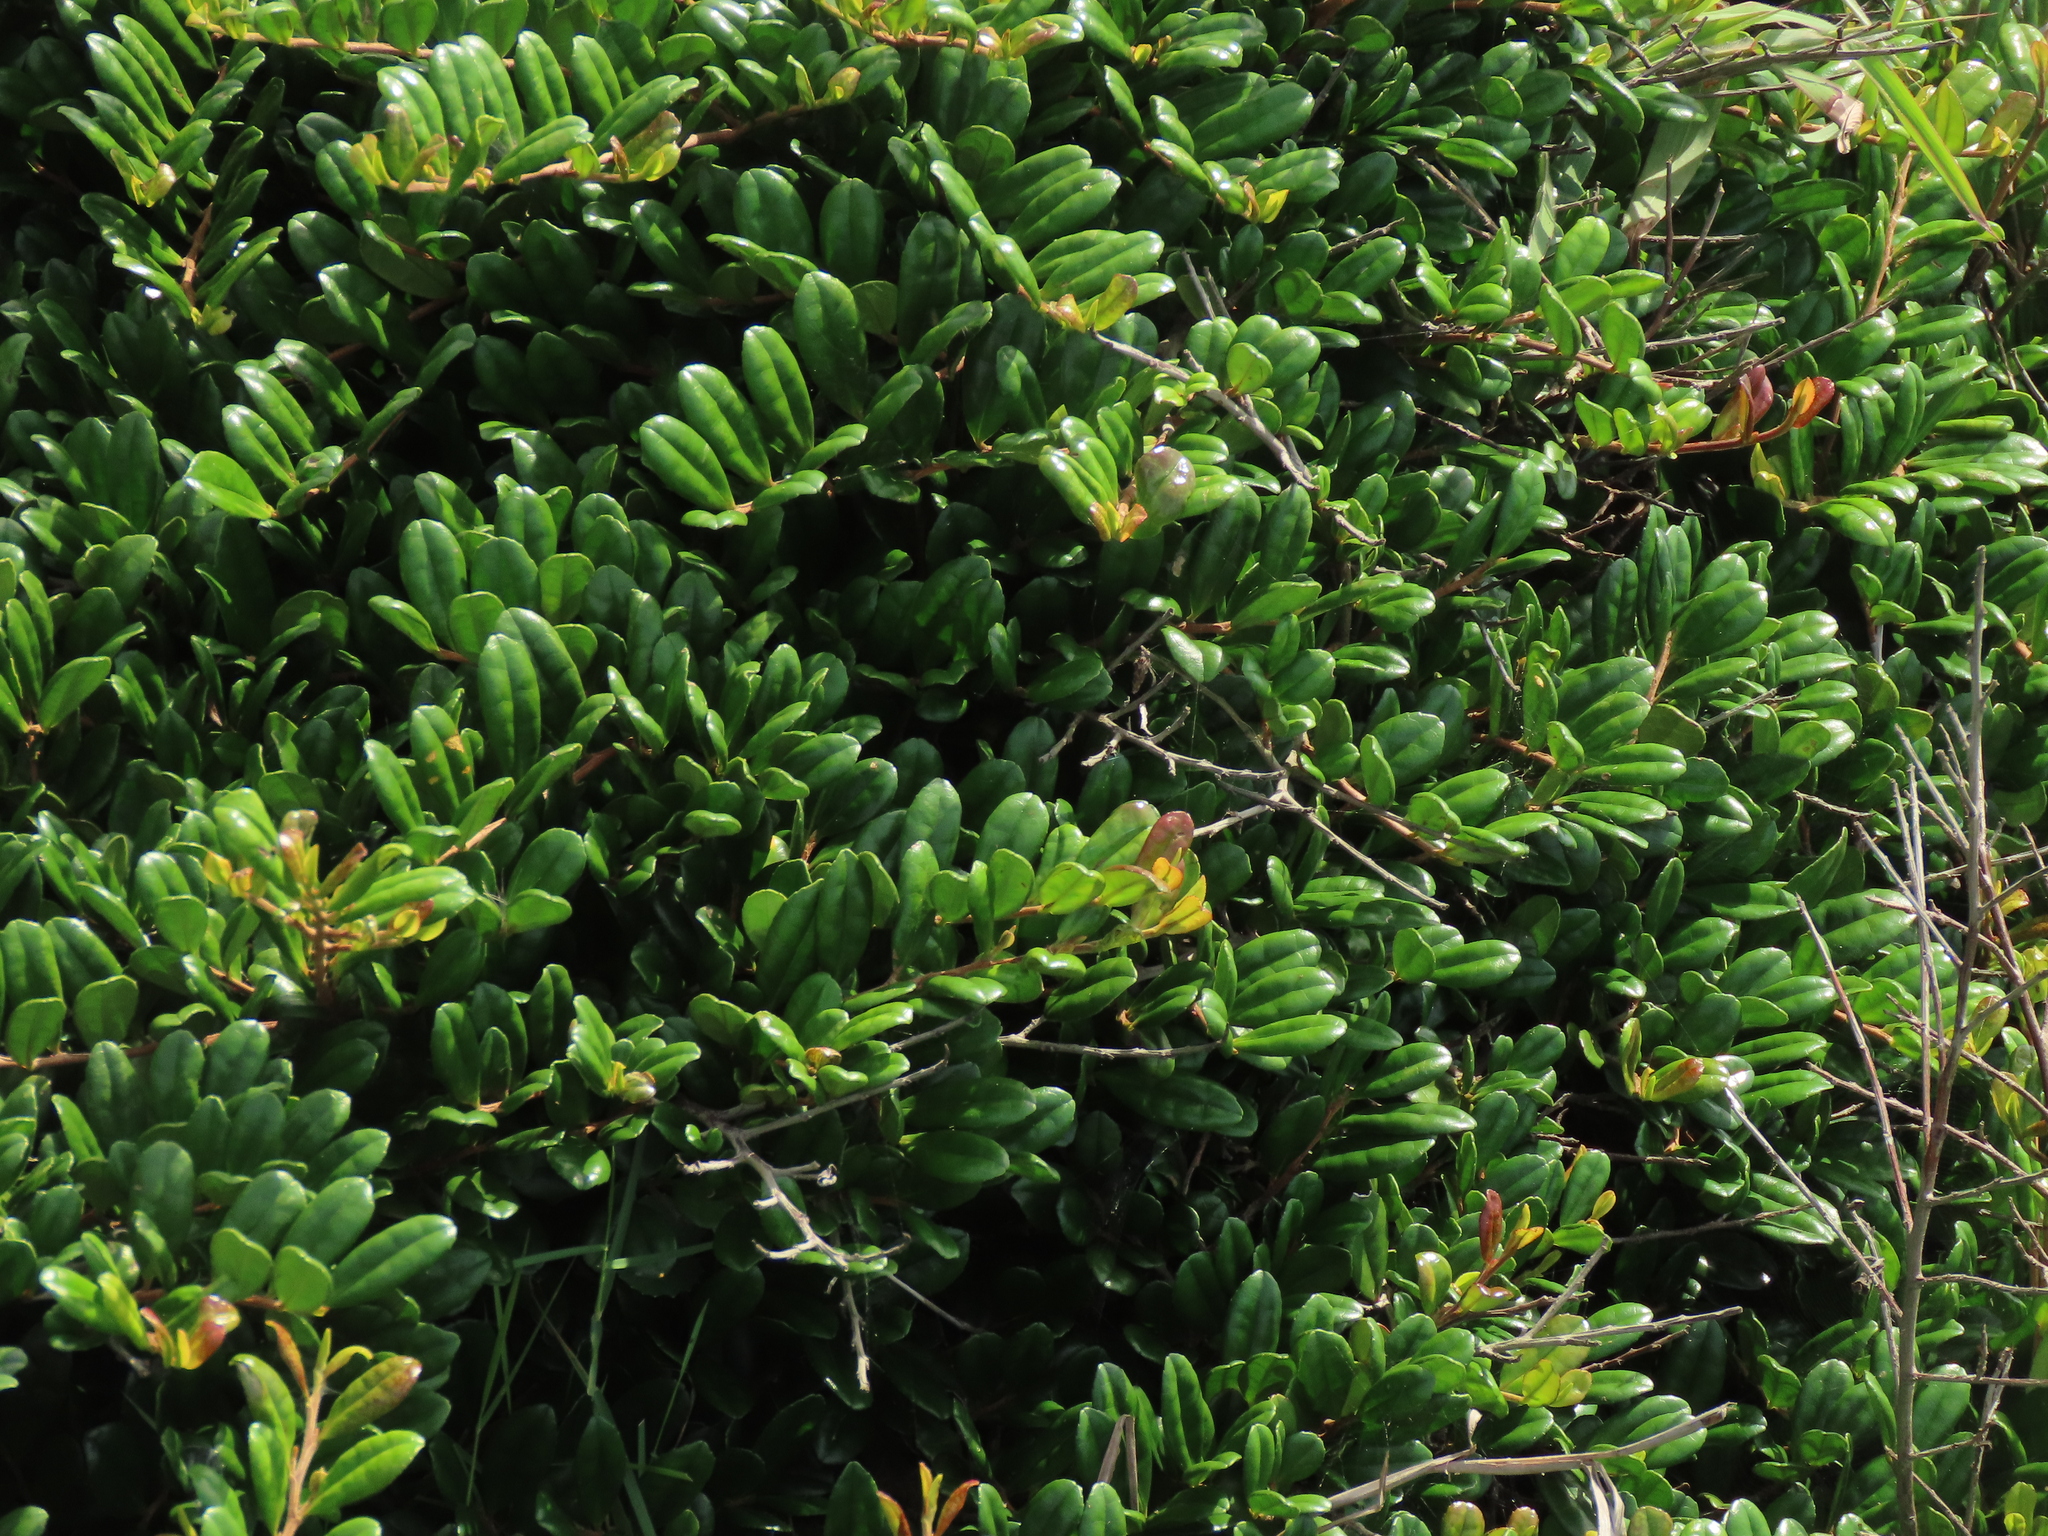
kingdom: Plantae
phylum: Tracheophyta
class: Magnoliopsida
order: Ericales
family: Pentaphylacaceae
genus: Eurya
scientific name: Eurya emarginata
